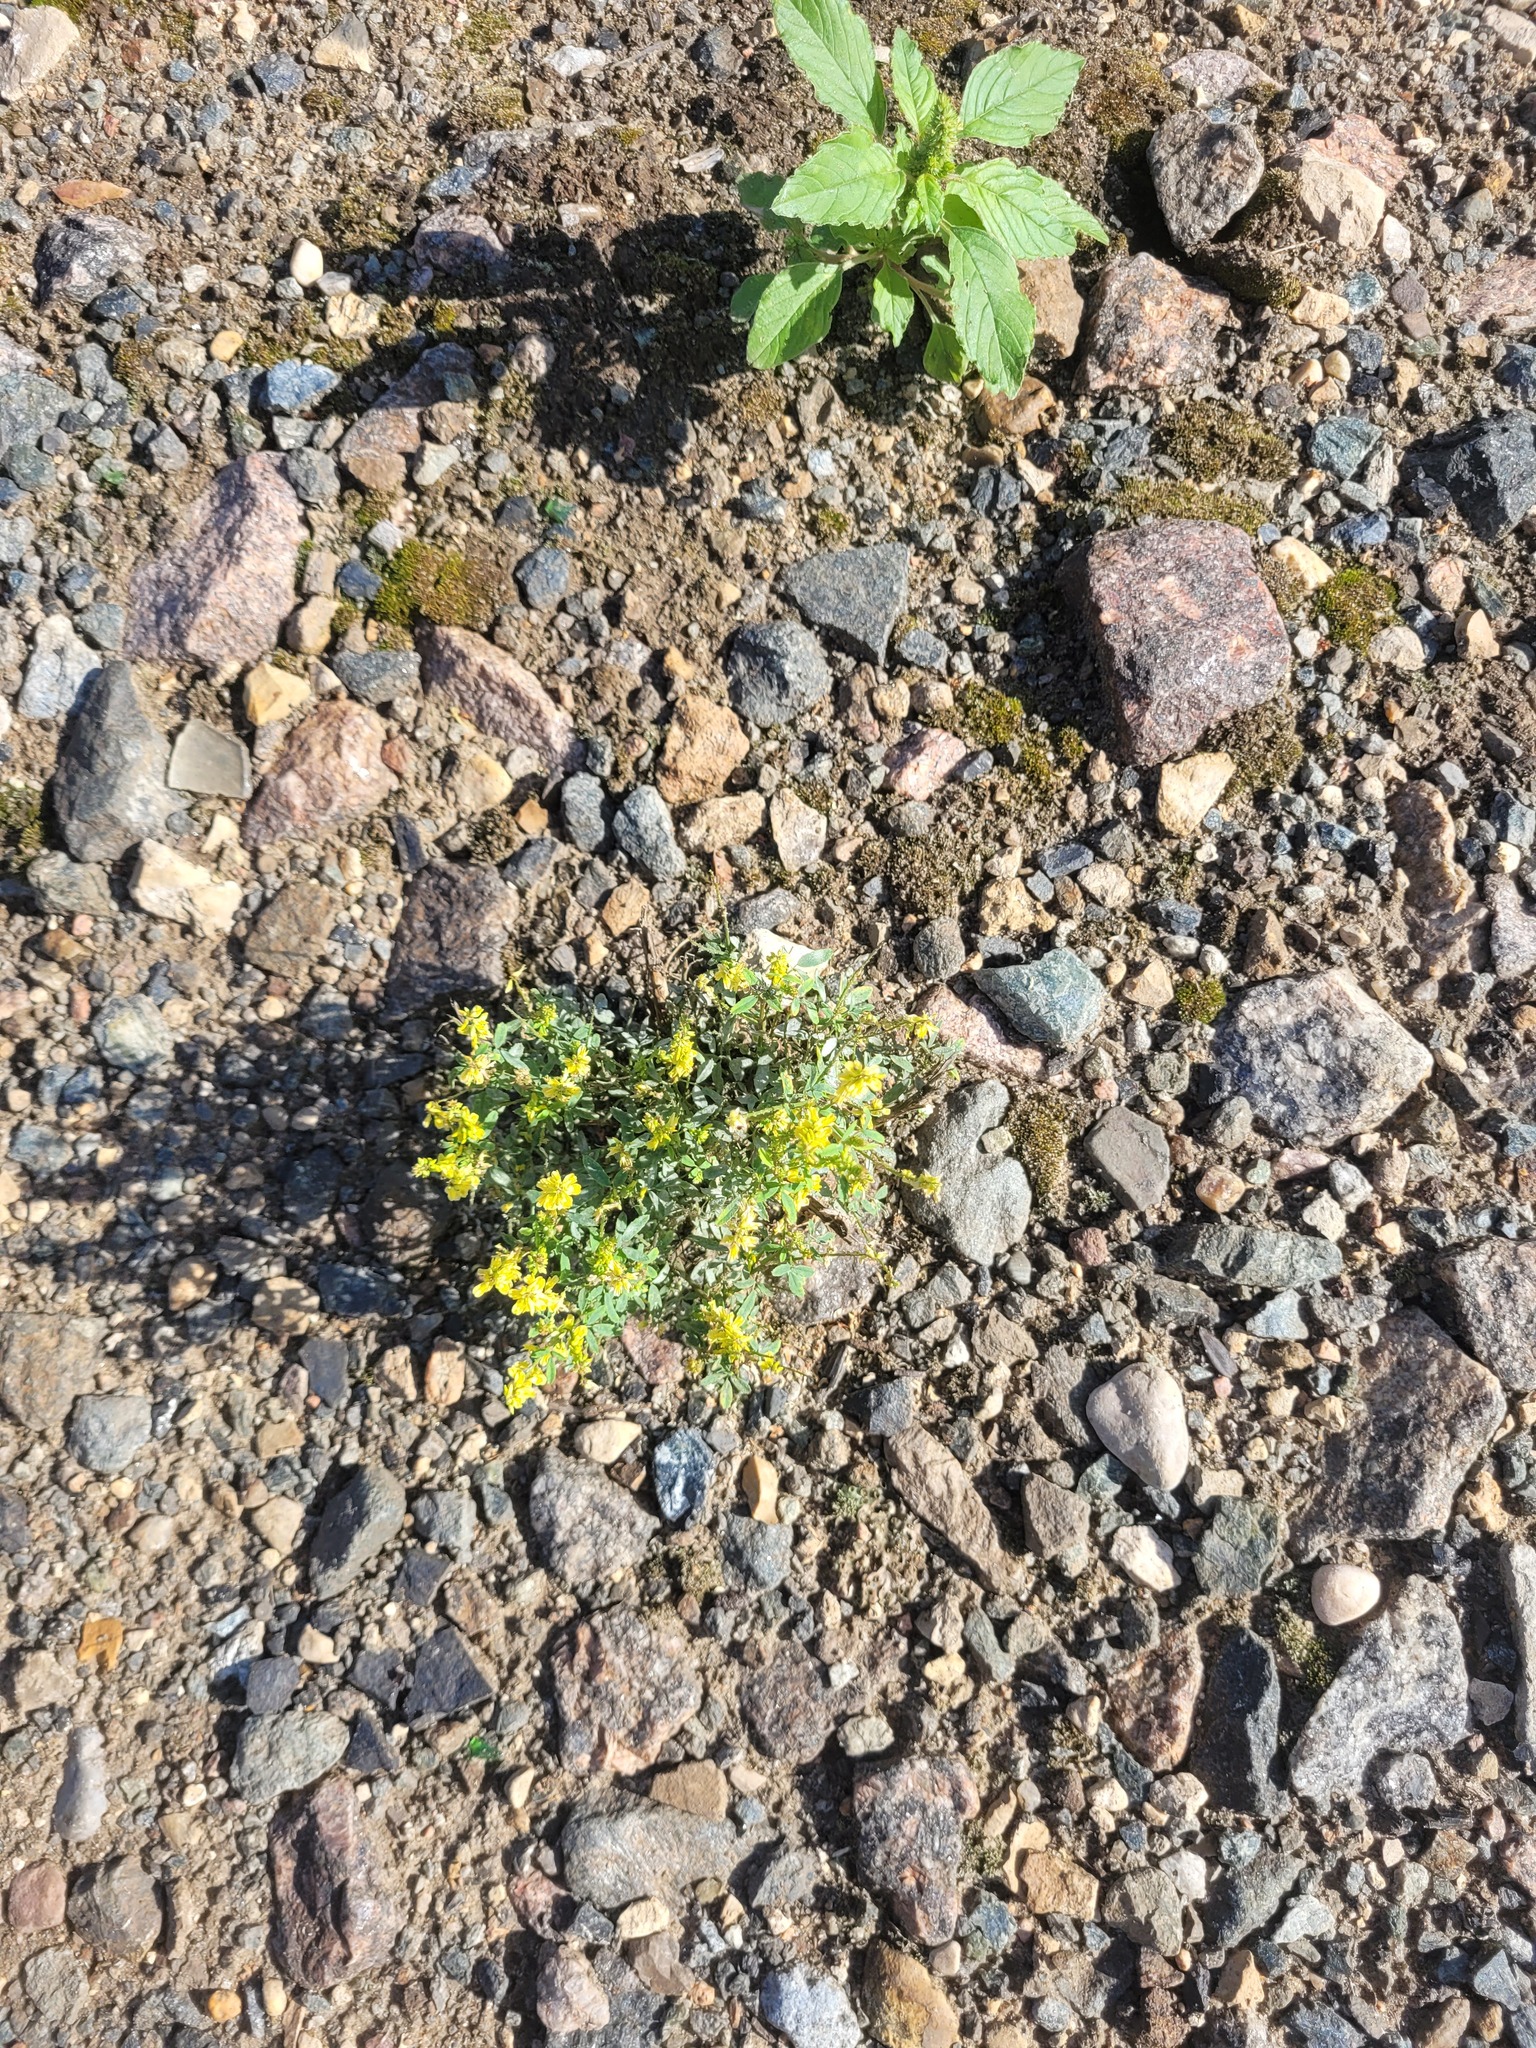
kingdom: Plantae
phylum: Tracheophyta
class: Magnoliopsida
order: Fabales
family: Fabaceae
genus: Melilotus
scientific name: Melilotus officinalis
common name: Sweetclover
